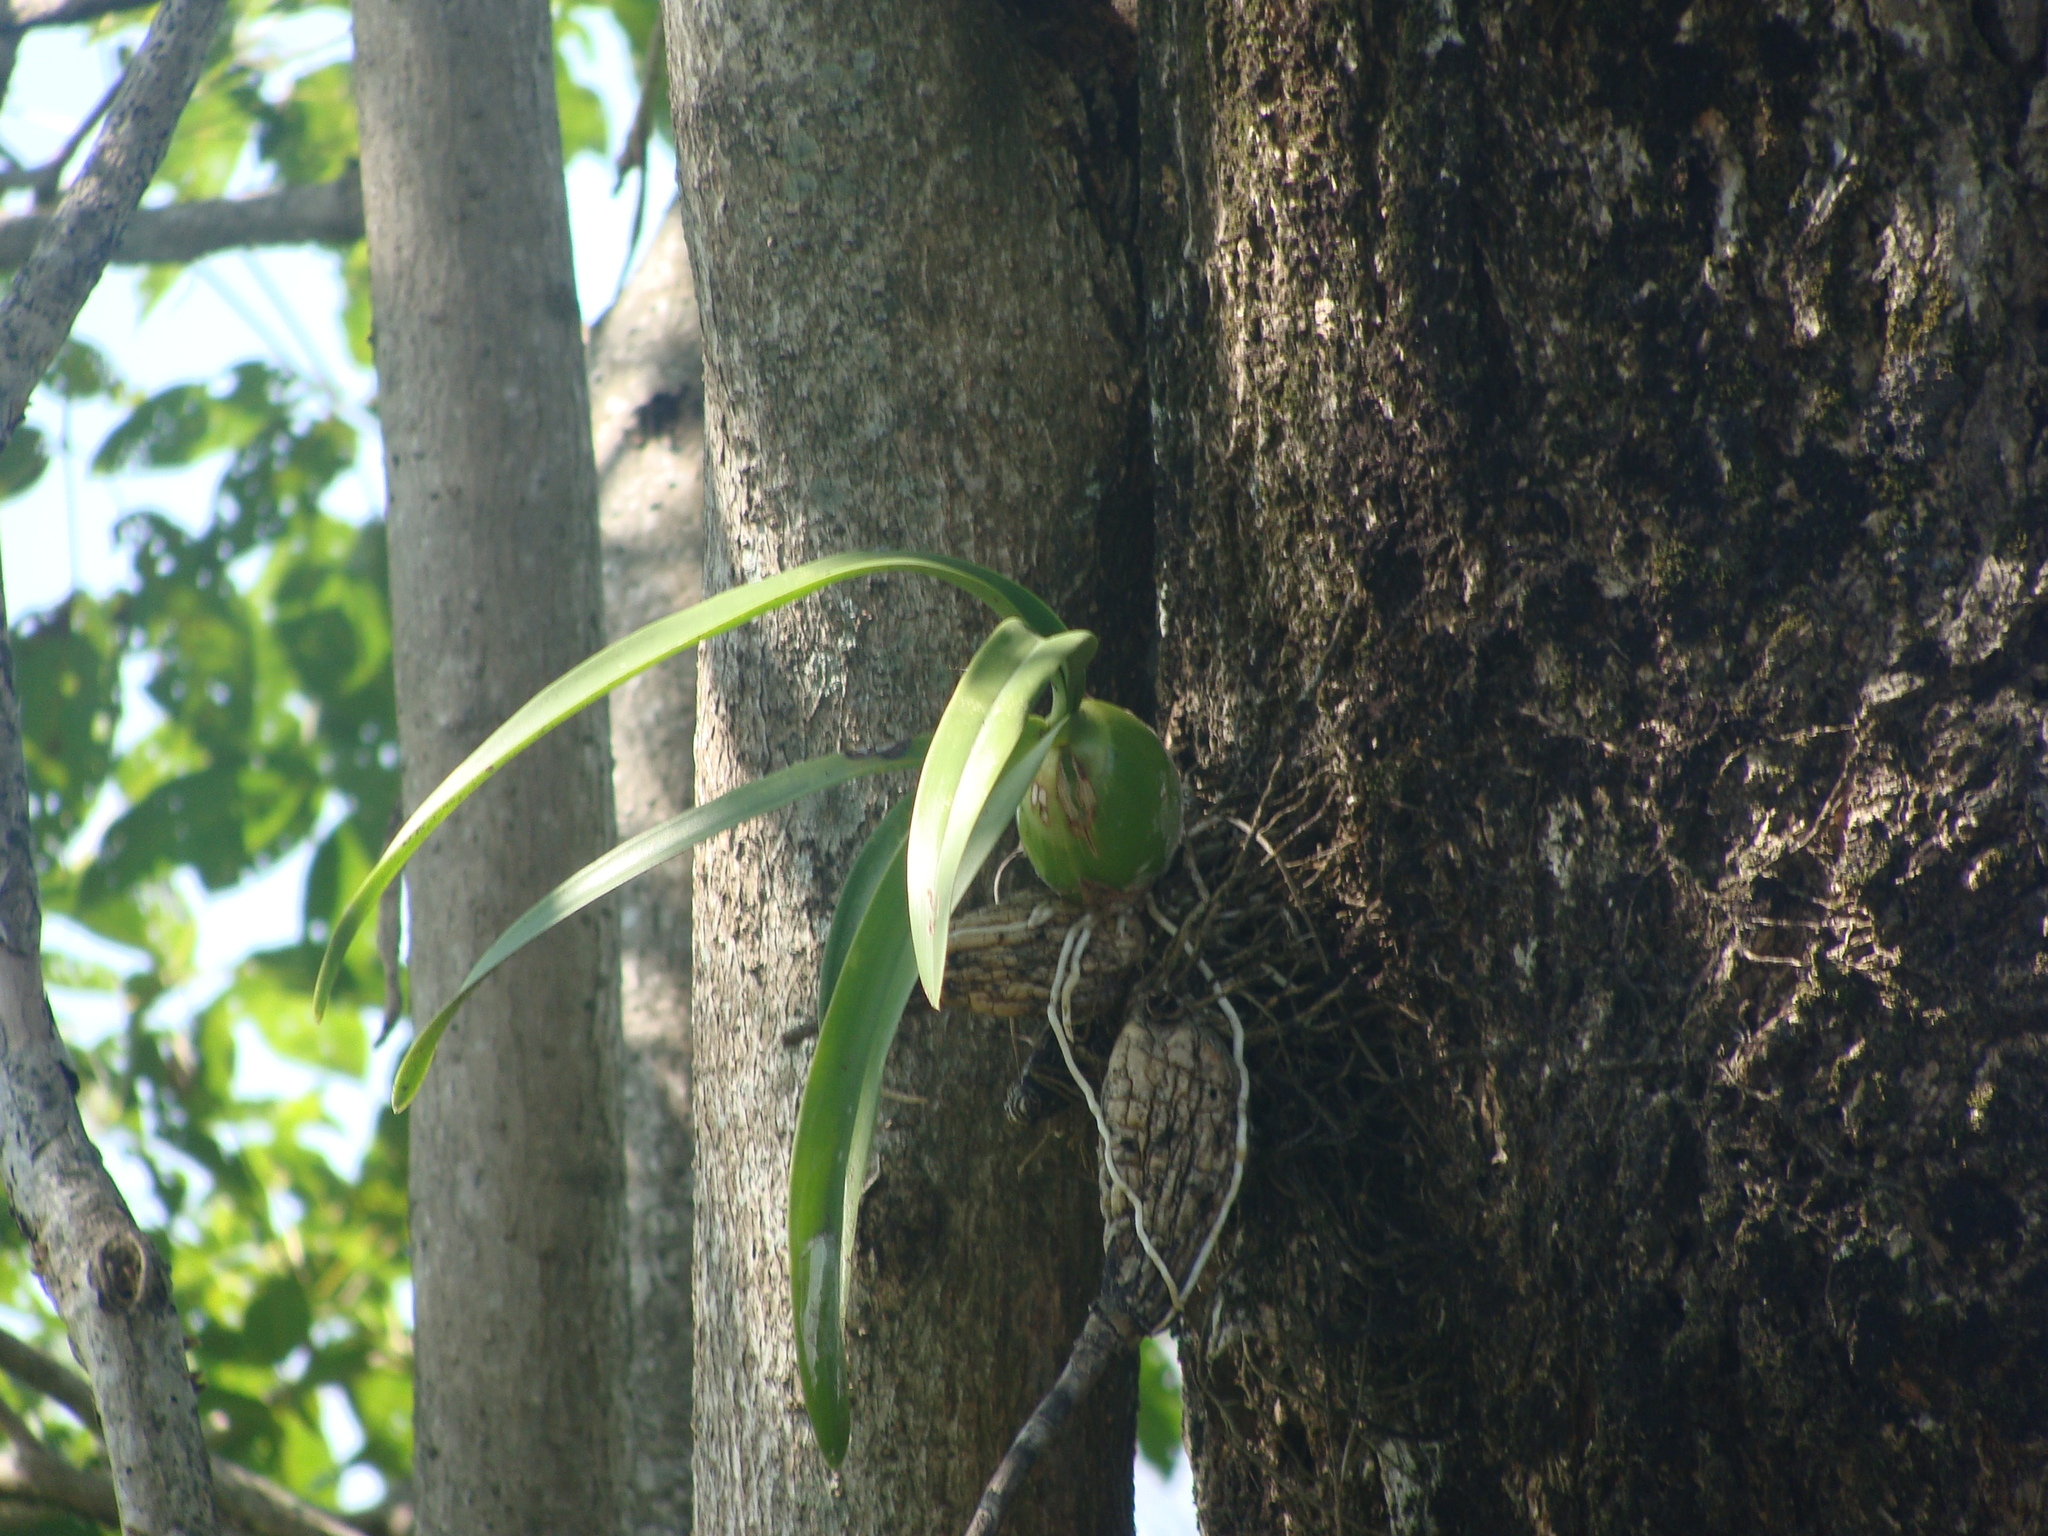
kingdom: Plantae
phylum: Tracheophyta
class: Liliopsida
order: Asparagales
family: Orchidaceae
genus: Encyclia
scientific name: Encyclia cordigera
